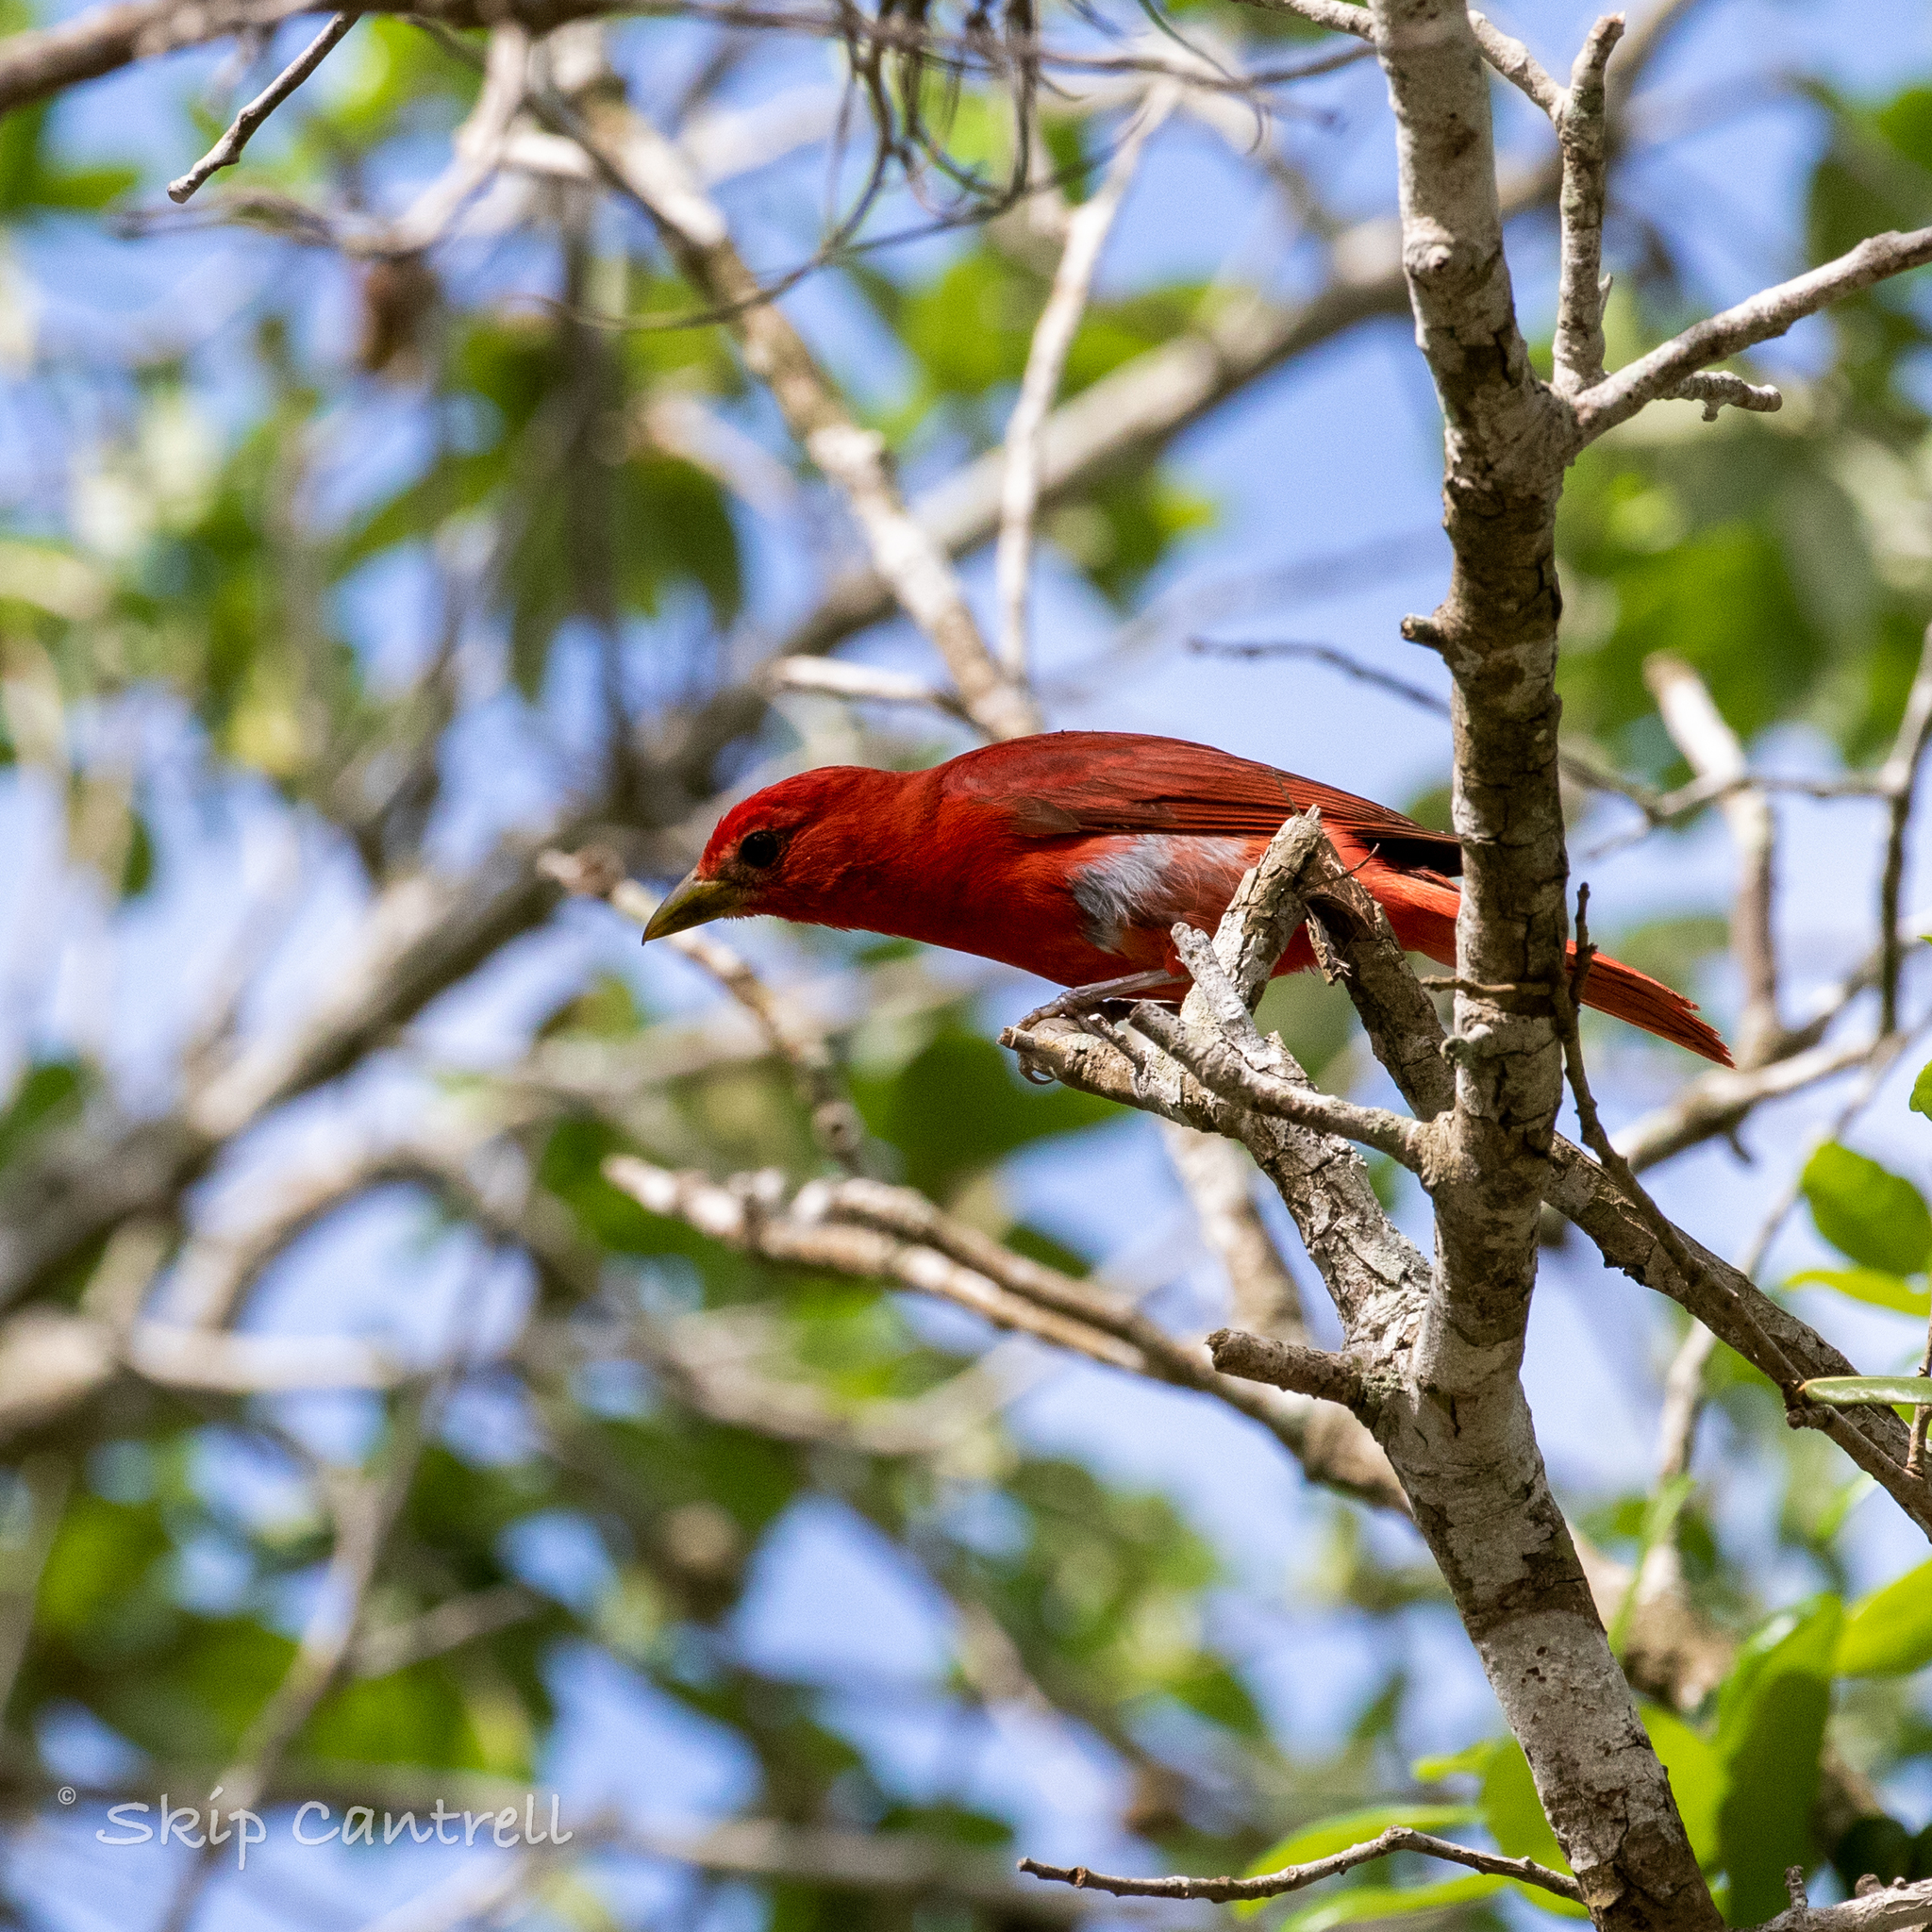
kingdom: Animalia
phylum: Chordata
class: Aves
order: Passeriformes
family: Cardinalidae
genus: Piranga
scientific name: Piranga rubra
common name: Summer tanager
